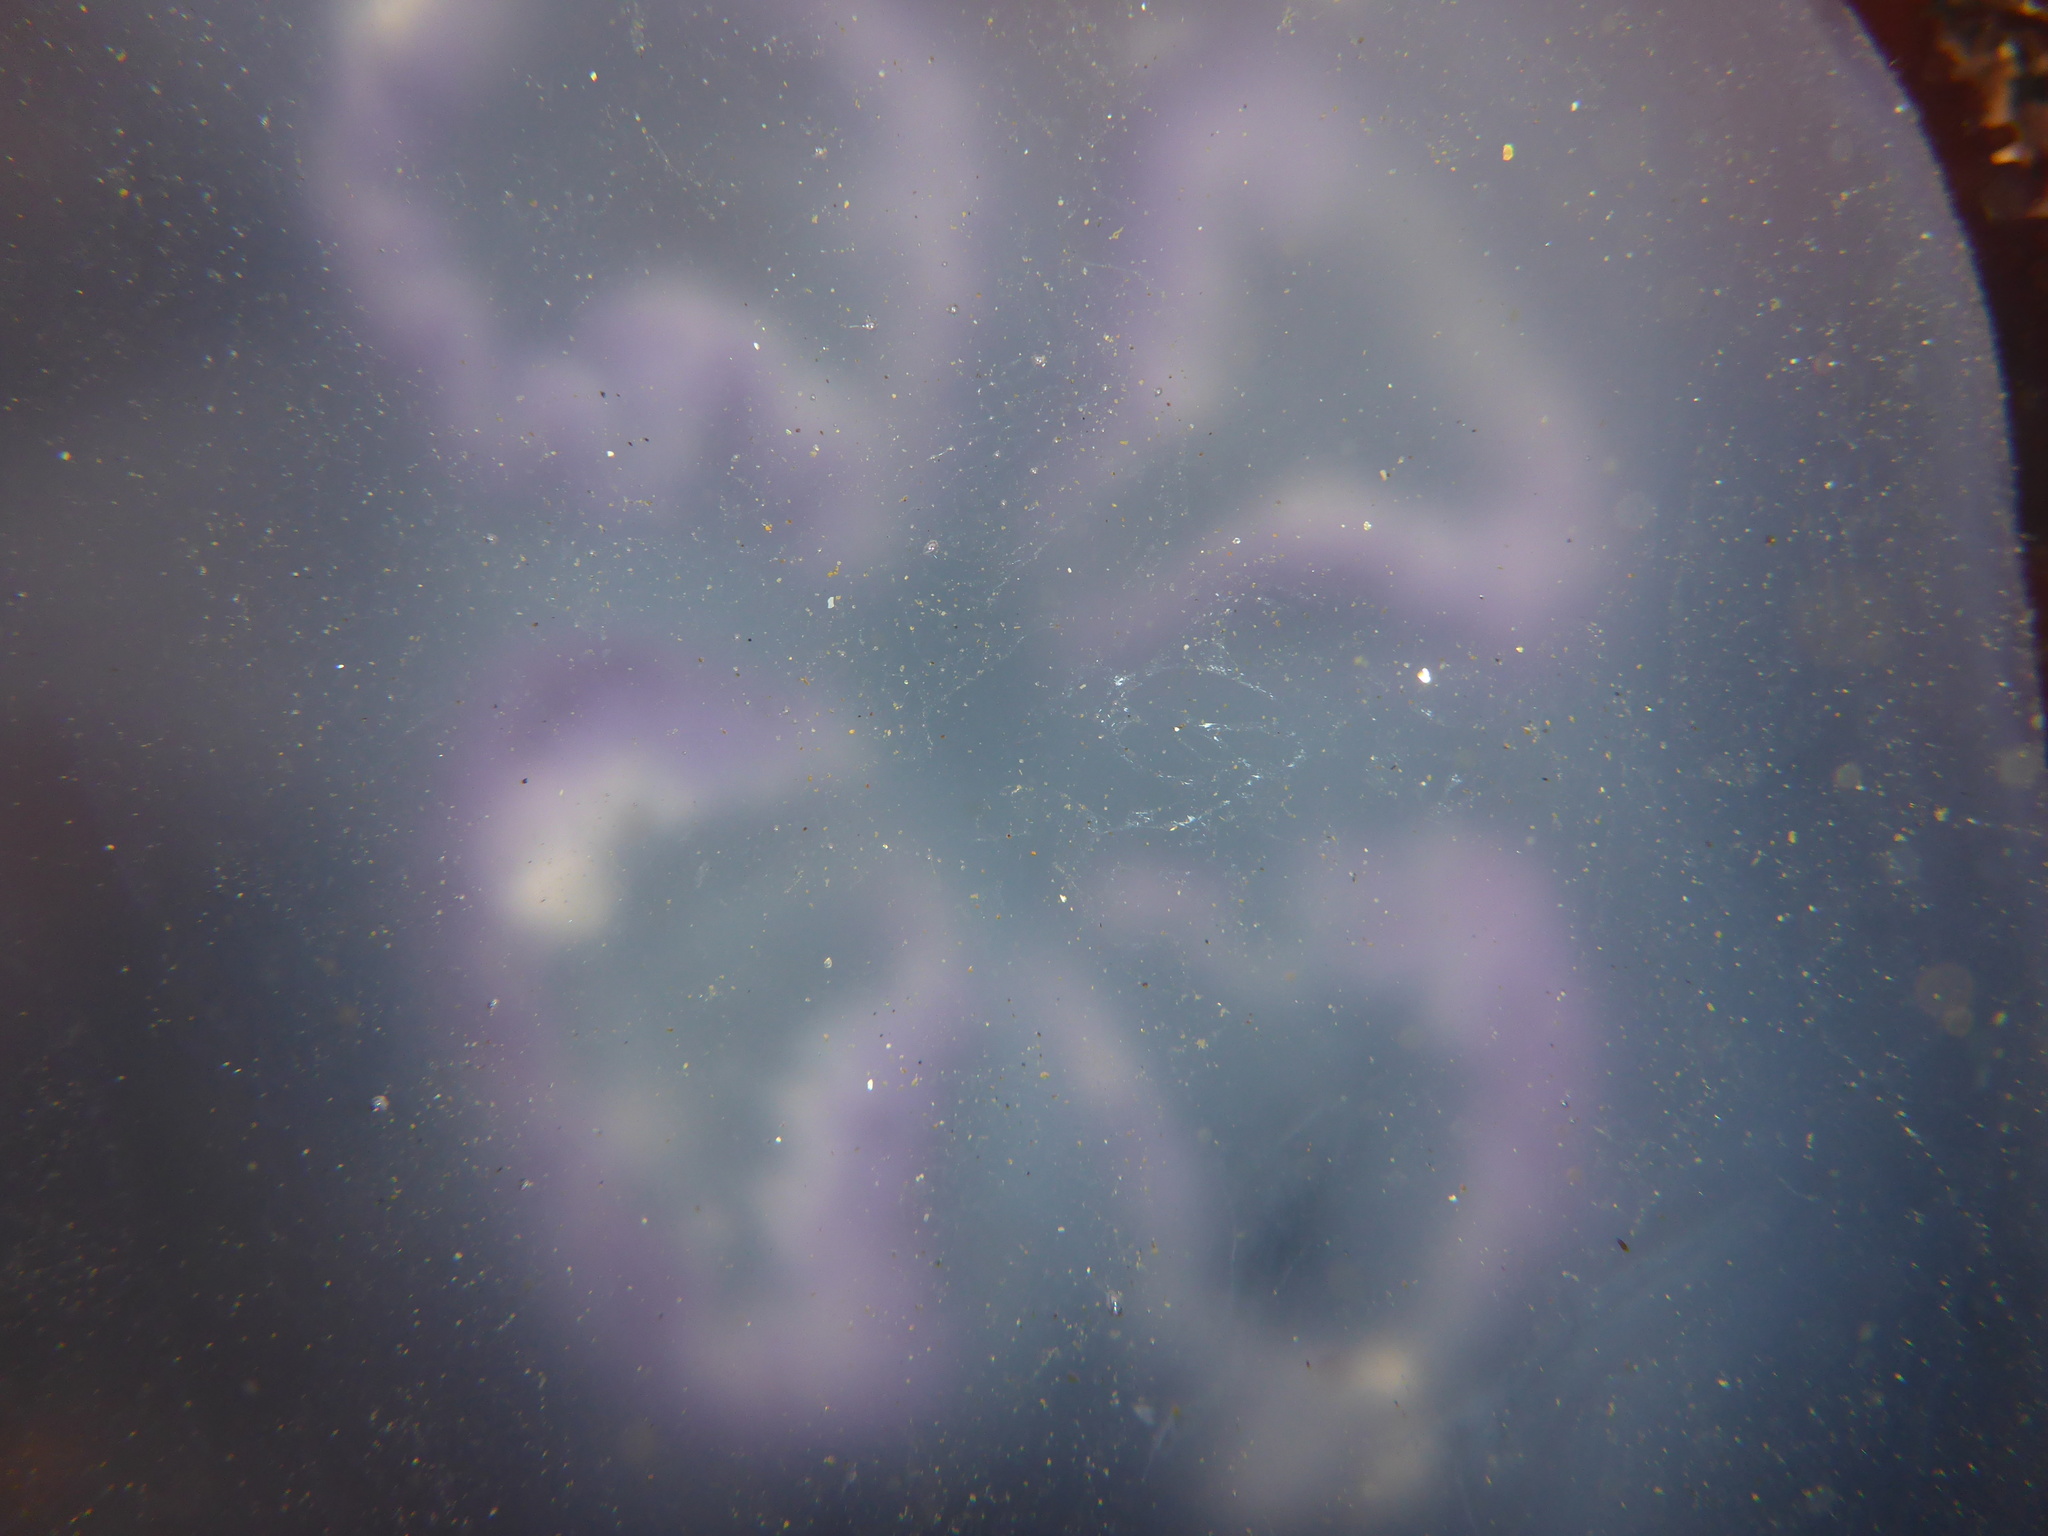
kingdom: Animalia
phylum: Cnidaria
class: Scyphozoa
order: Semaeostomeae
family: Ulmaridae
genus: Aurelia
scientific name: Aurelia labiata
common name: Pacific moon jelly
